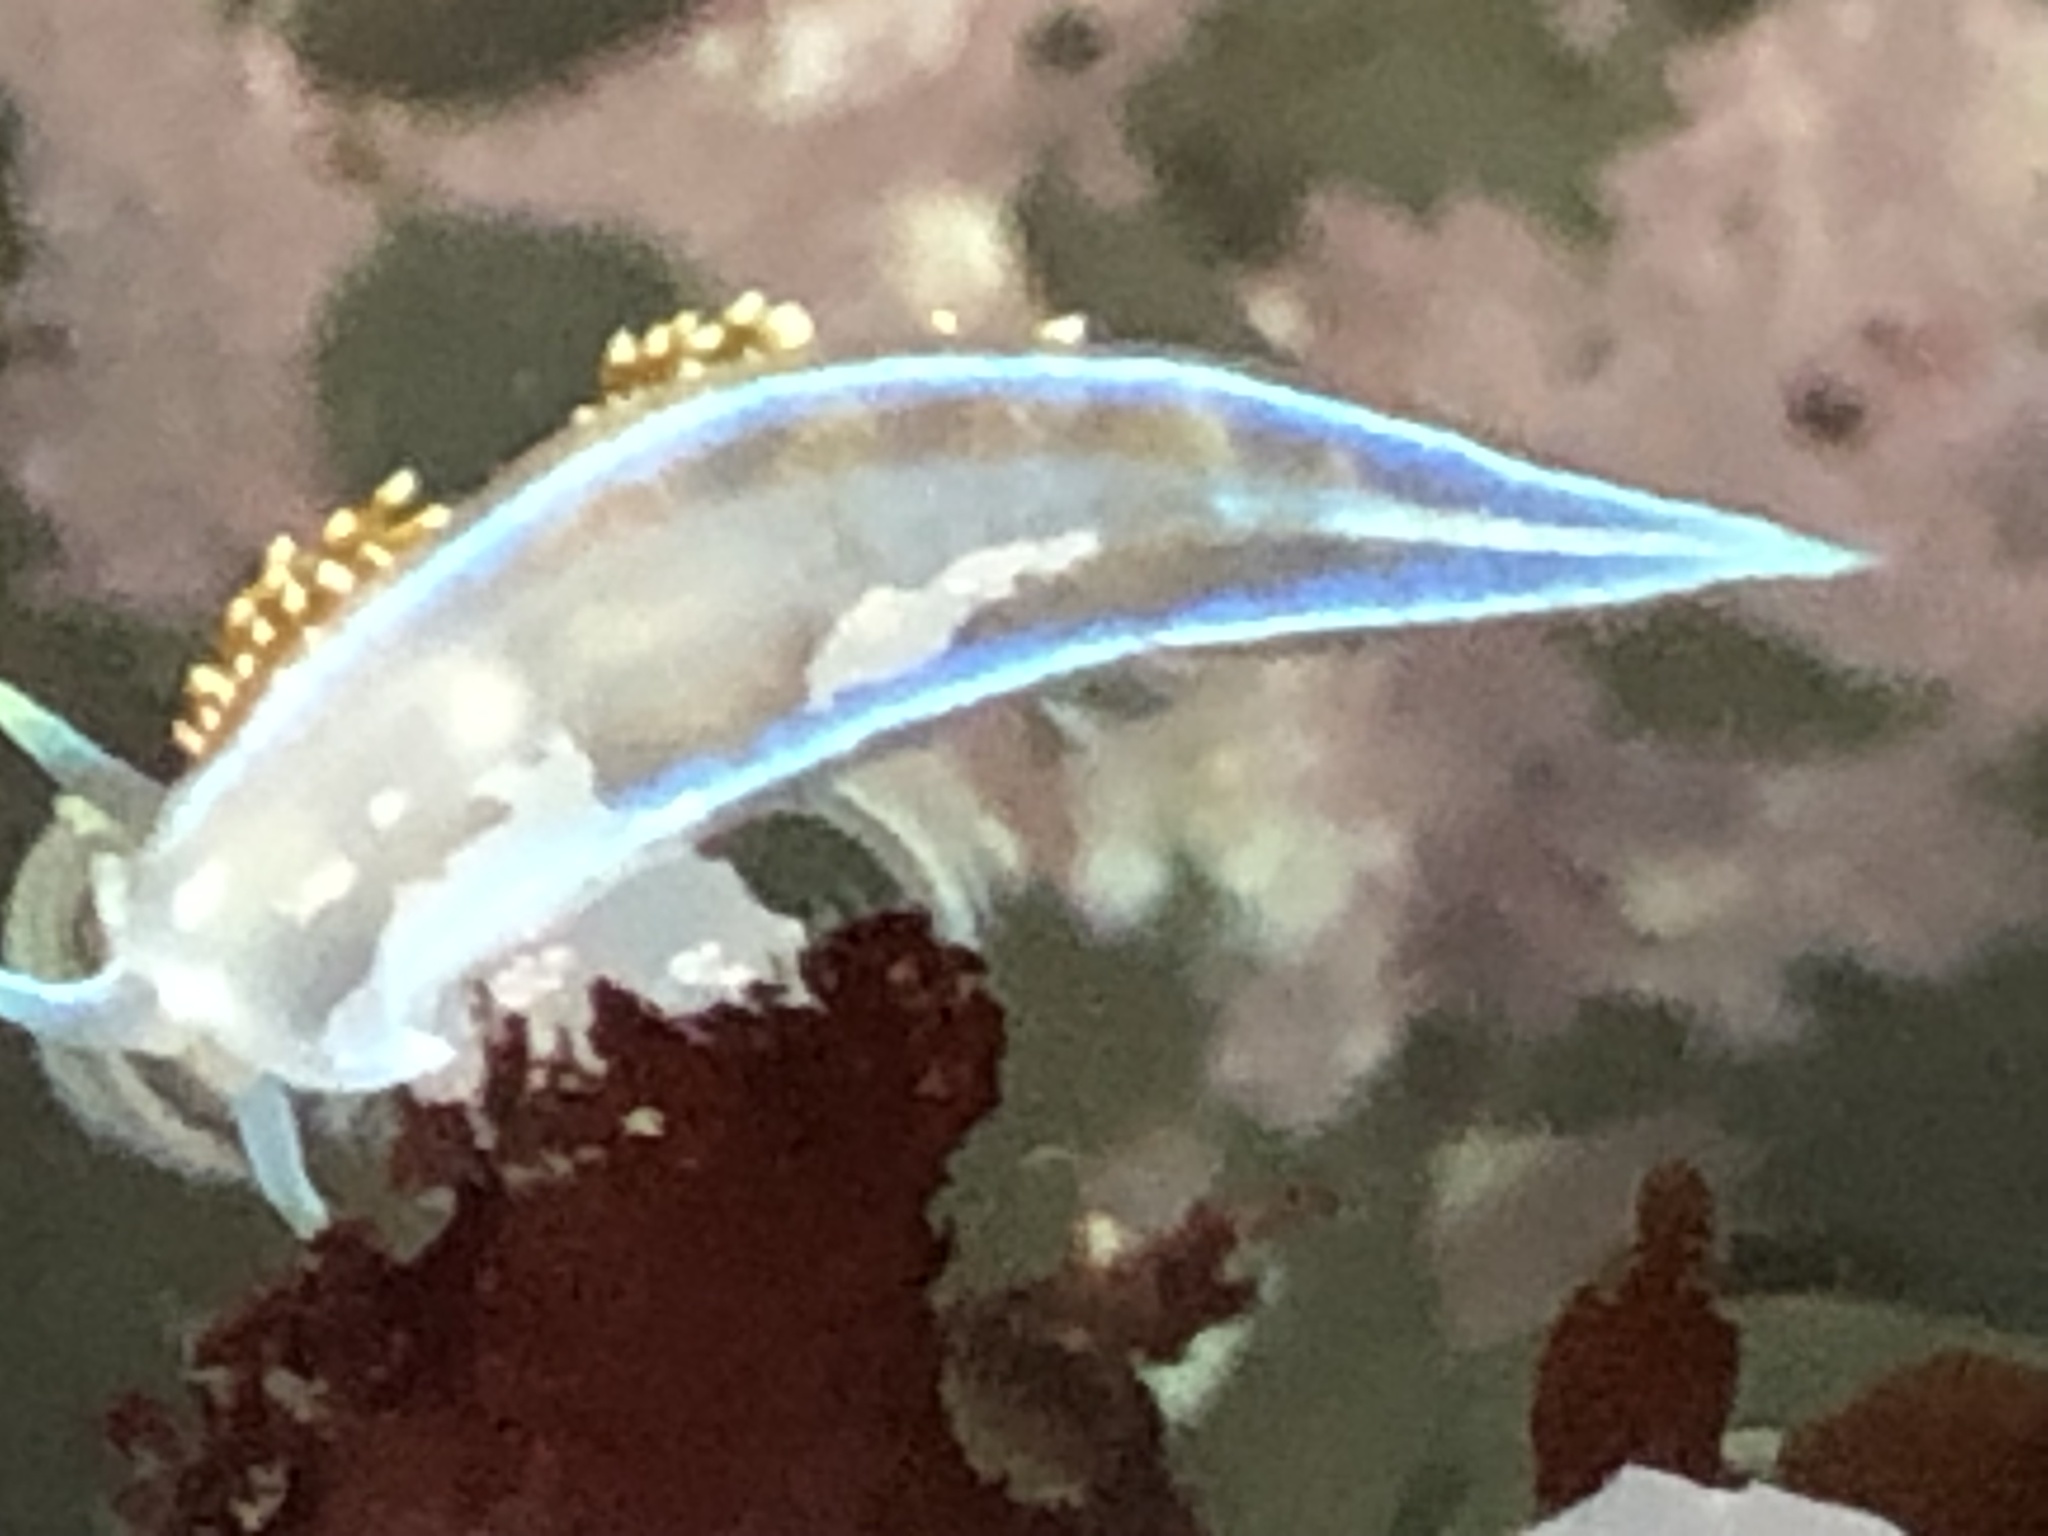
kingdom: Animalia
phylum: Mollusca
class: Gastropoda
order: Nudibranchia
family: Myrrhinidae
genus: Hermissenda
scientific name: Hermissenda opalescens
